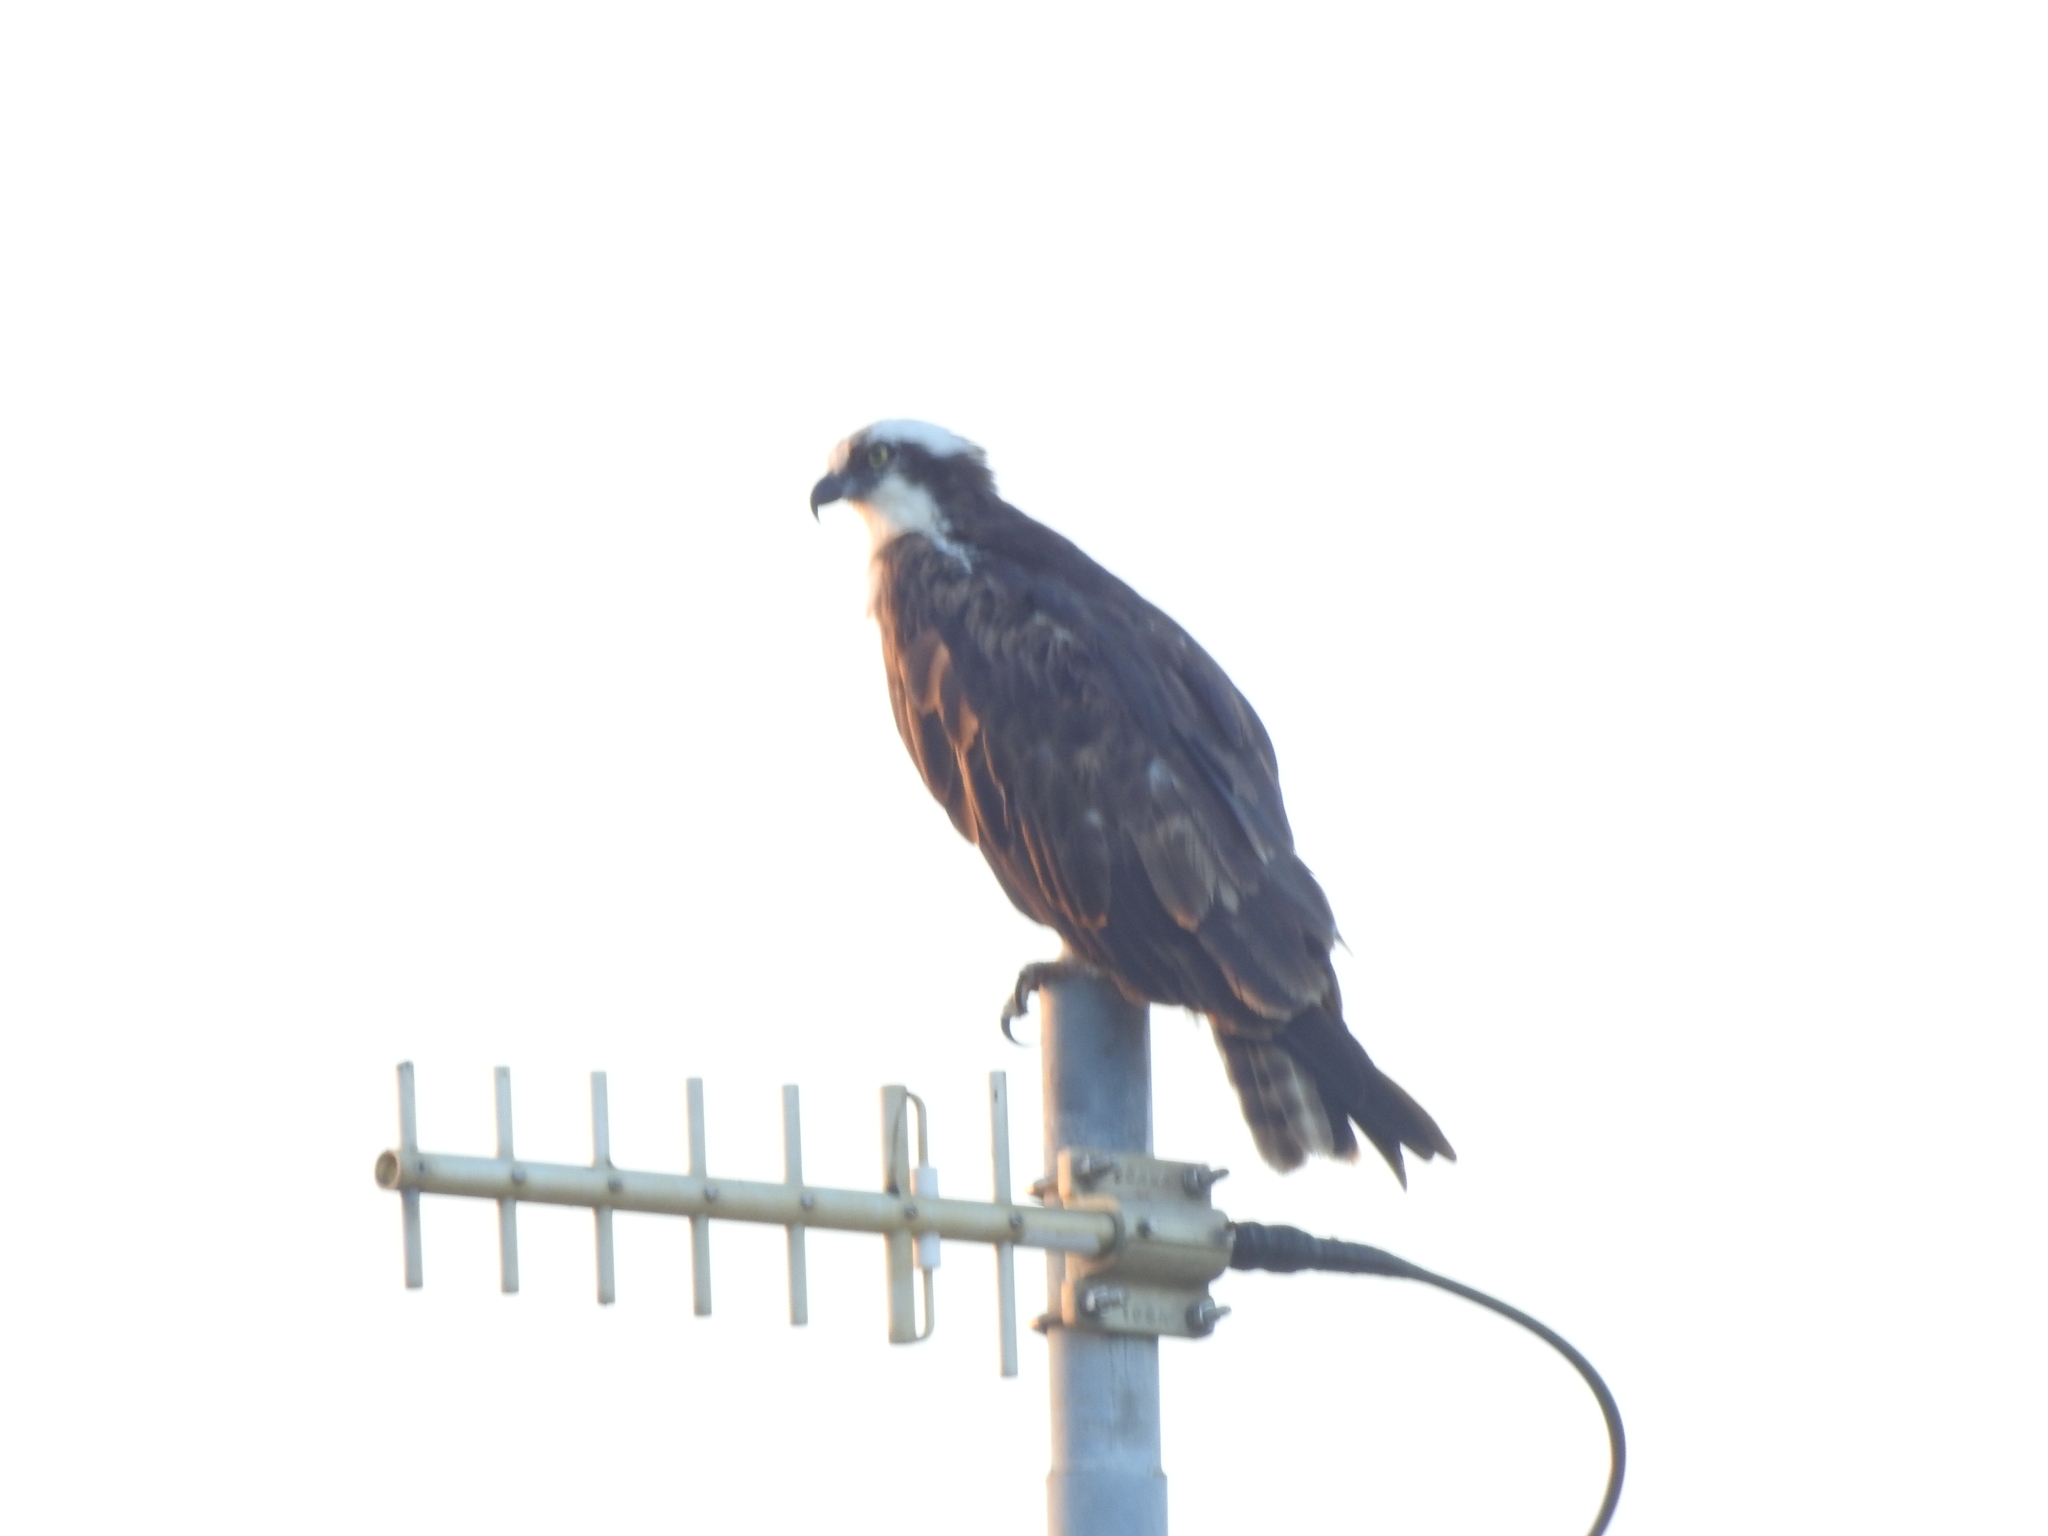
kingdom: Animalia
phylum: Chordata
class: Aves
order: Accipitriformes
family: Pandionidae
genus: Pandion
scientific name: Pandion haliaetus
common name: Osprey
